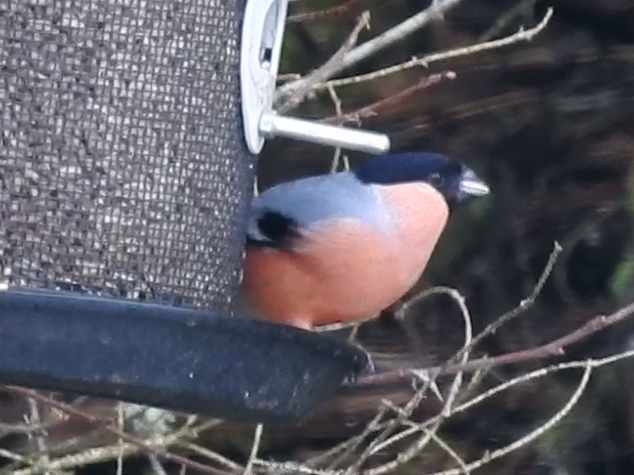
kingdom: Animalia
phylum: Chordata
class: Aves
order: Passeriformes
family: Fringillidae
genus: Pyrrhula
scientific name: Pyrrhula pyrrhula
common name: Eurasian bullfinch
